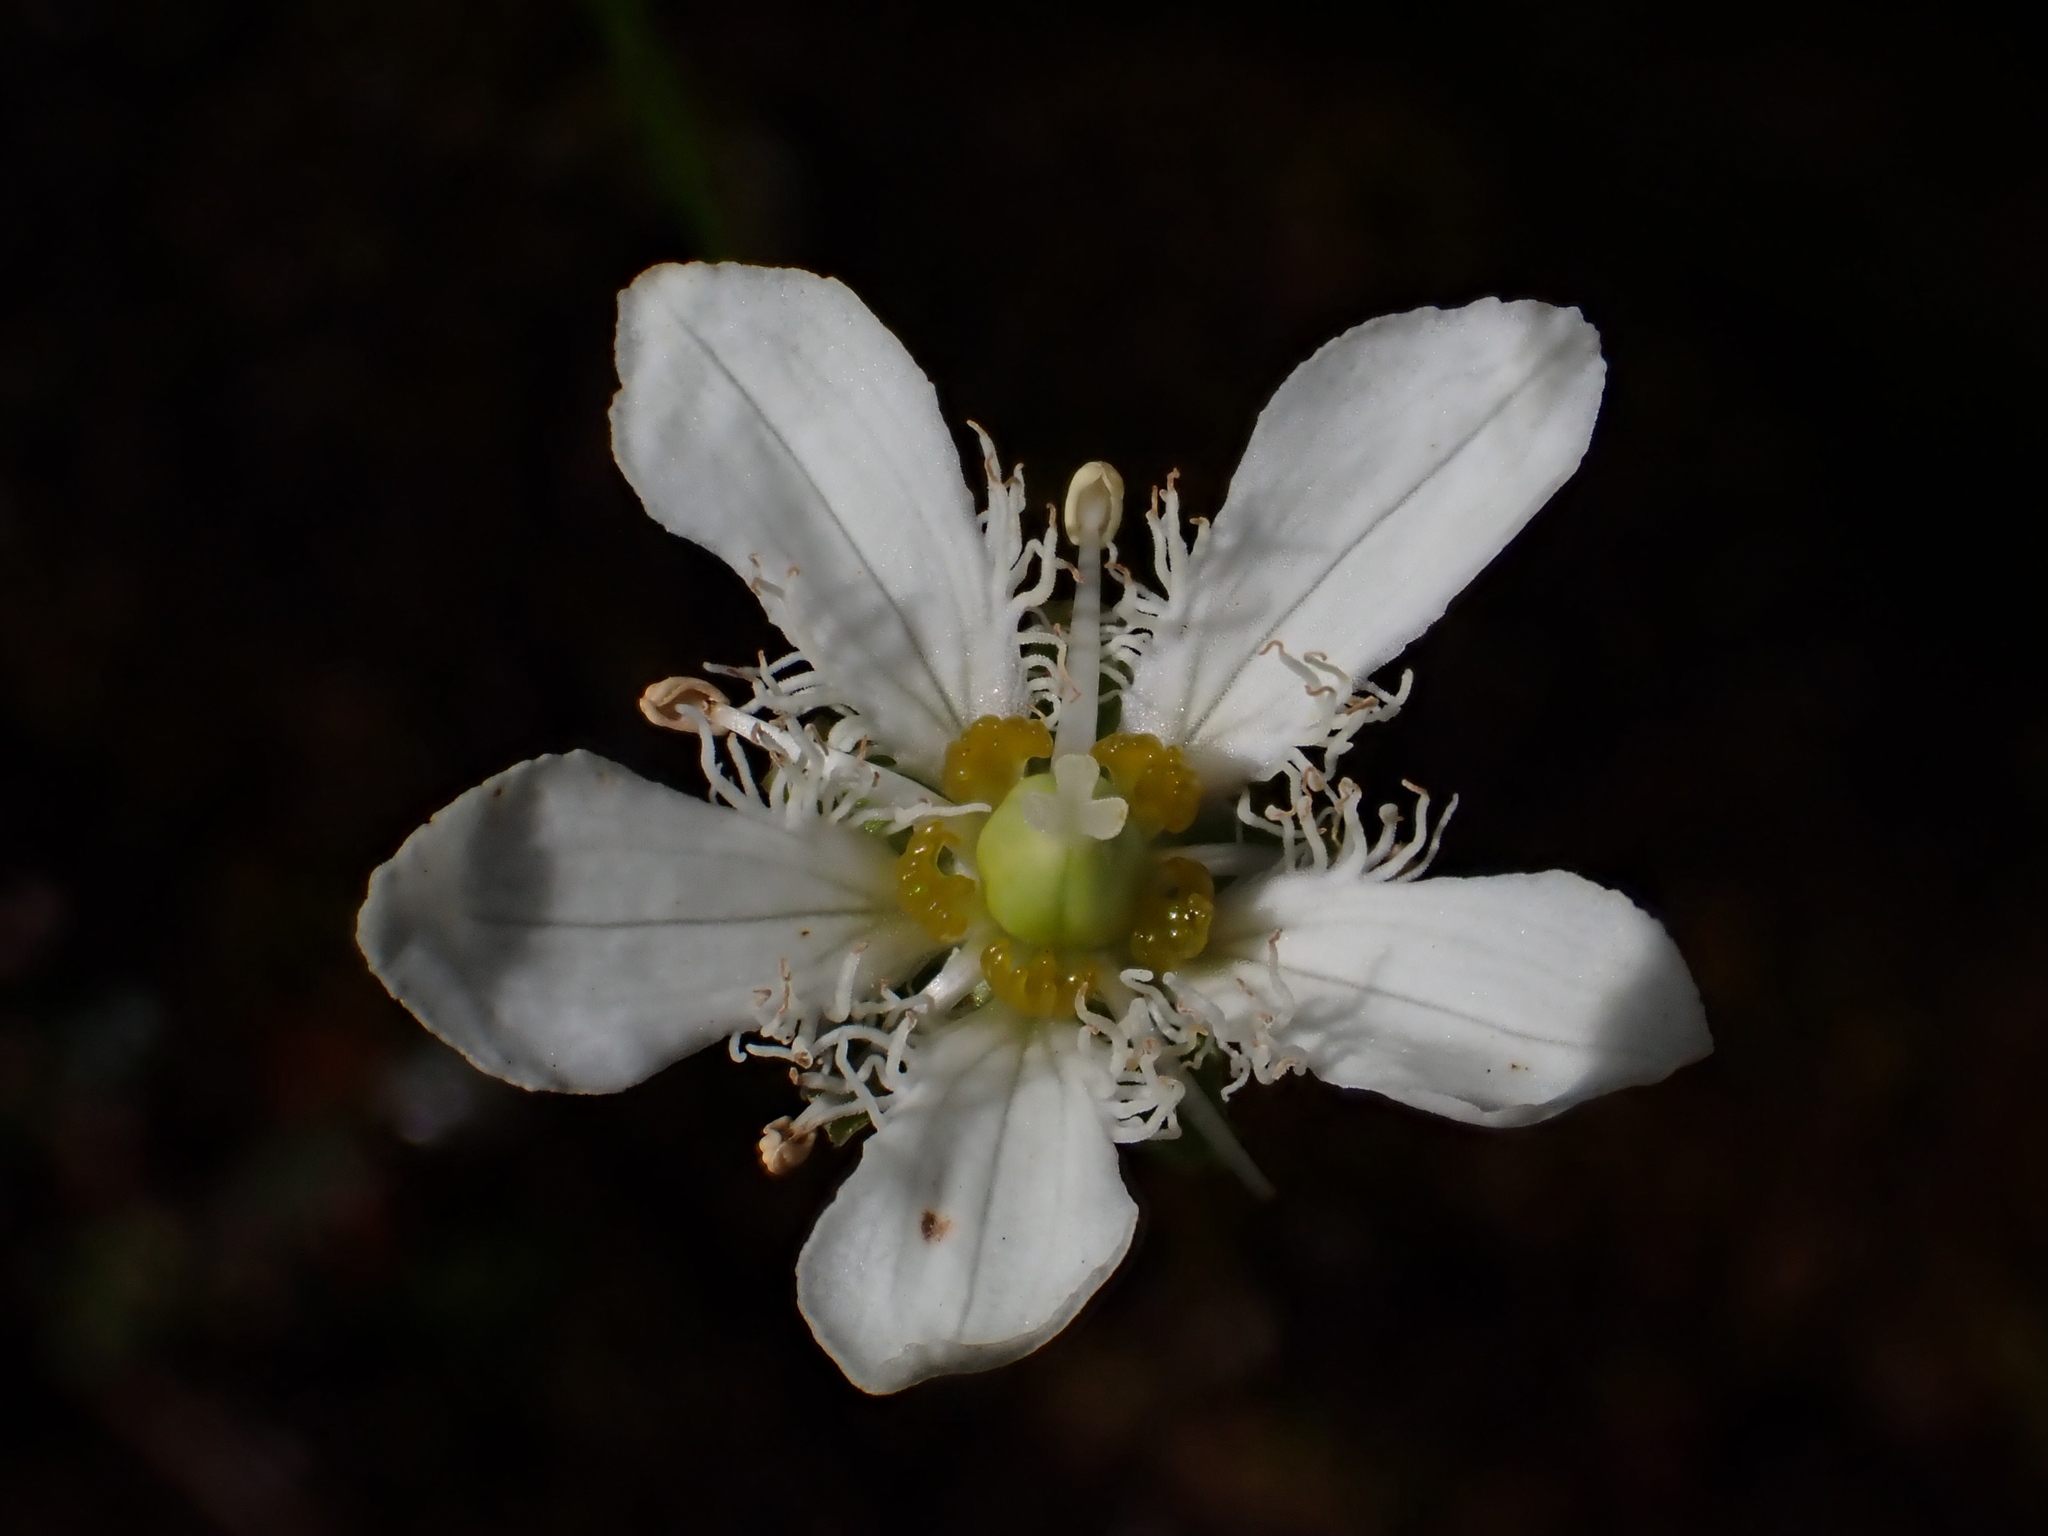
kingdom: Plantae
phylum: Tracheophyta
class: Magnoliopsida
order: Celastrales
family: Parnassiaceae
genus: Parnassia
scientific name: Parnassia fimbriata
